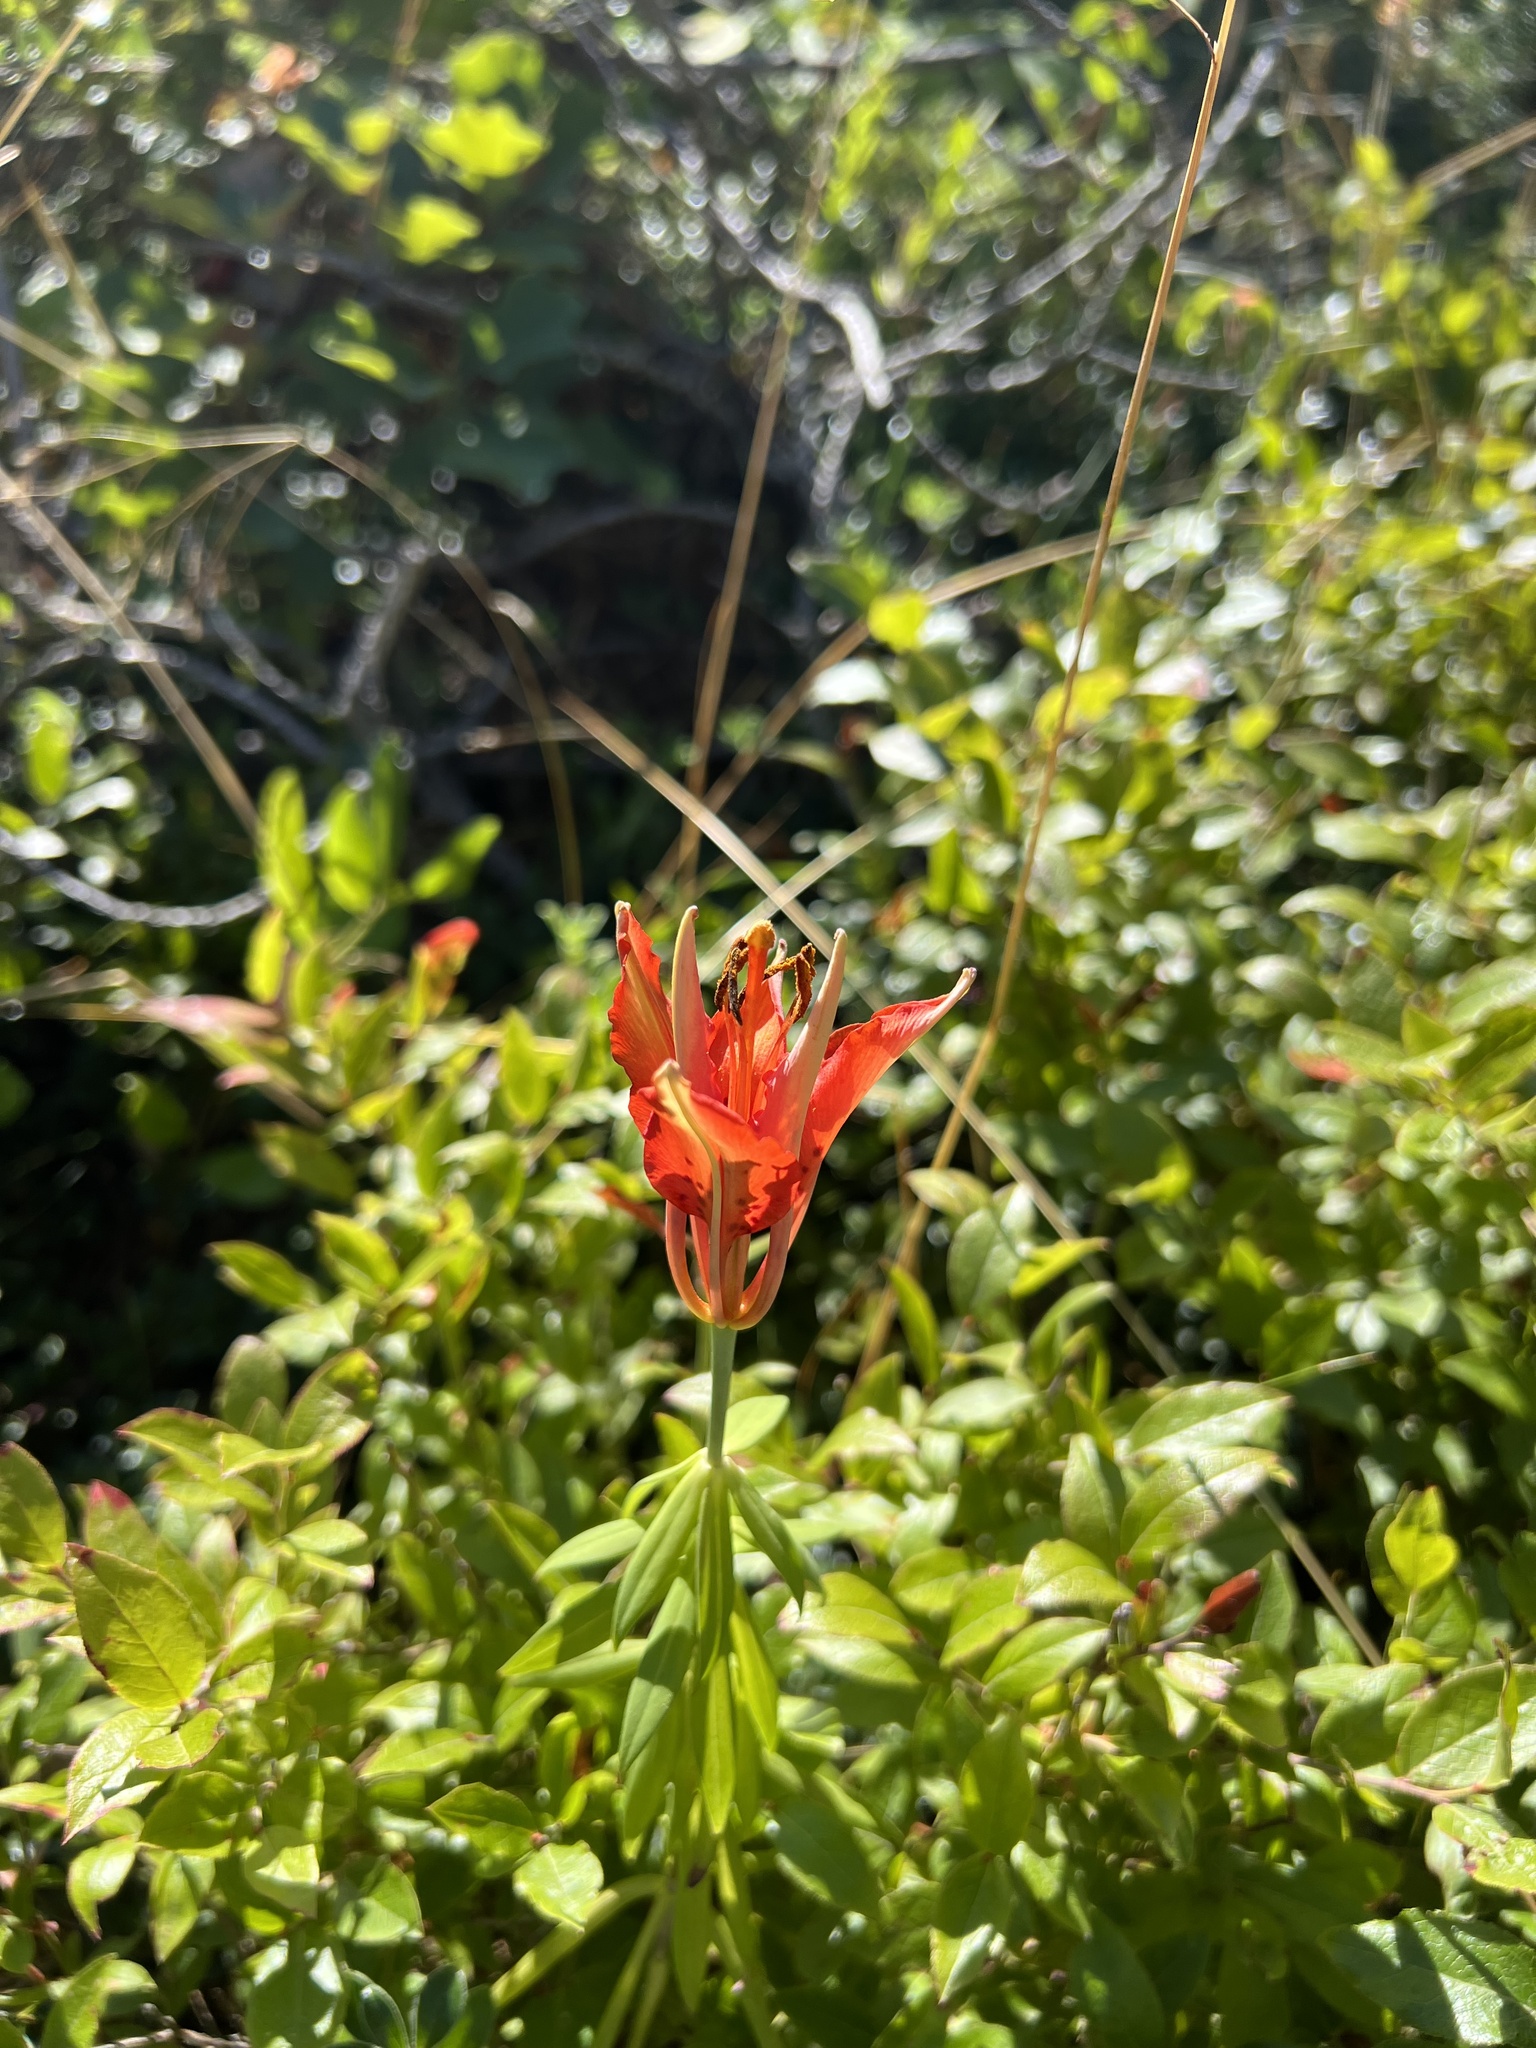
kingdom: Plantae
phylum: Tracheophyta
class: Liliopsida
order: Liliales
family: Liliaceae
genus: Lilium
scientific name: Lilium philadelphicum
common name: Red lily
